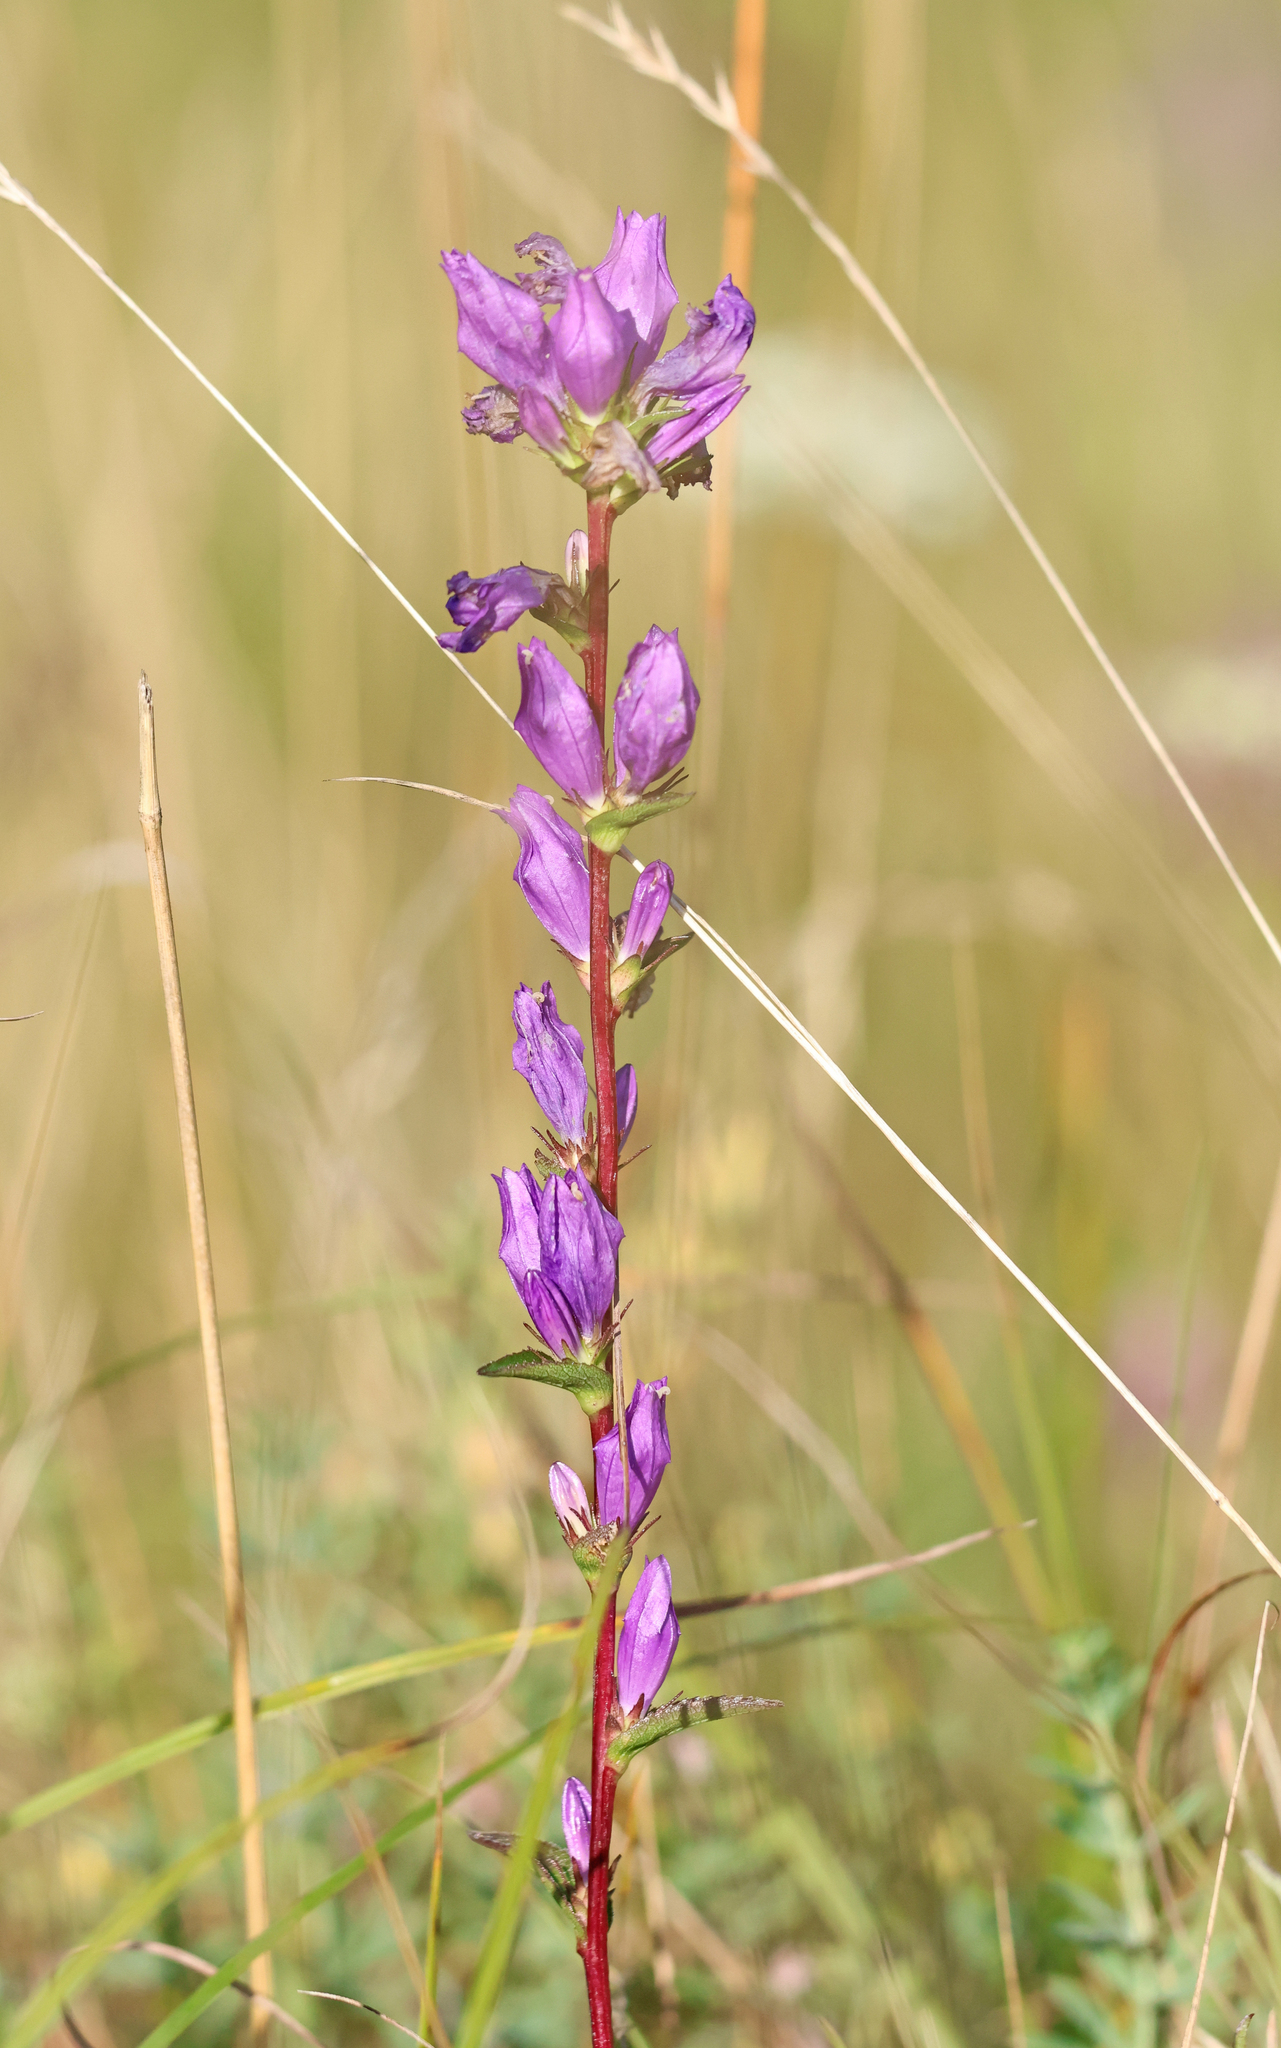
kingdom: Plantae
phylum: Tracheophyta
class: Magnoliopsida
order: Asterales
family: Campanulaceae
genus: Campanula
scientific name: Campanula glomerata
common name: Clustered bellflower
